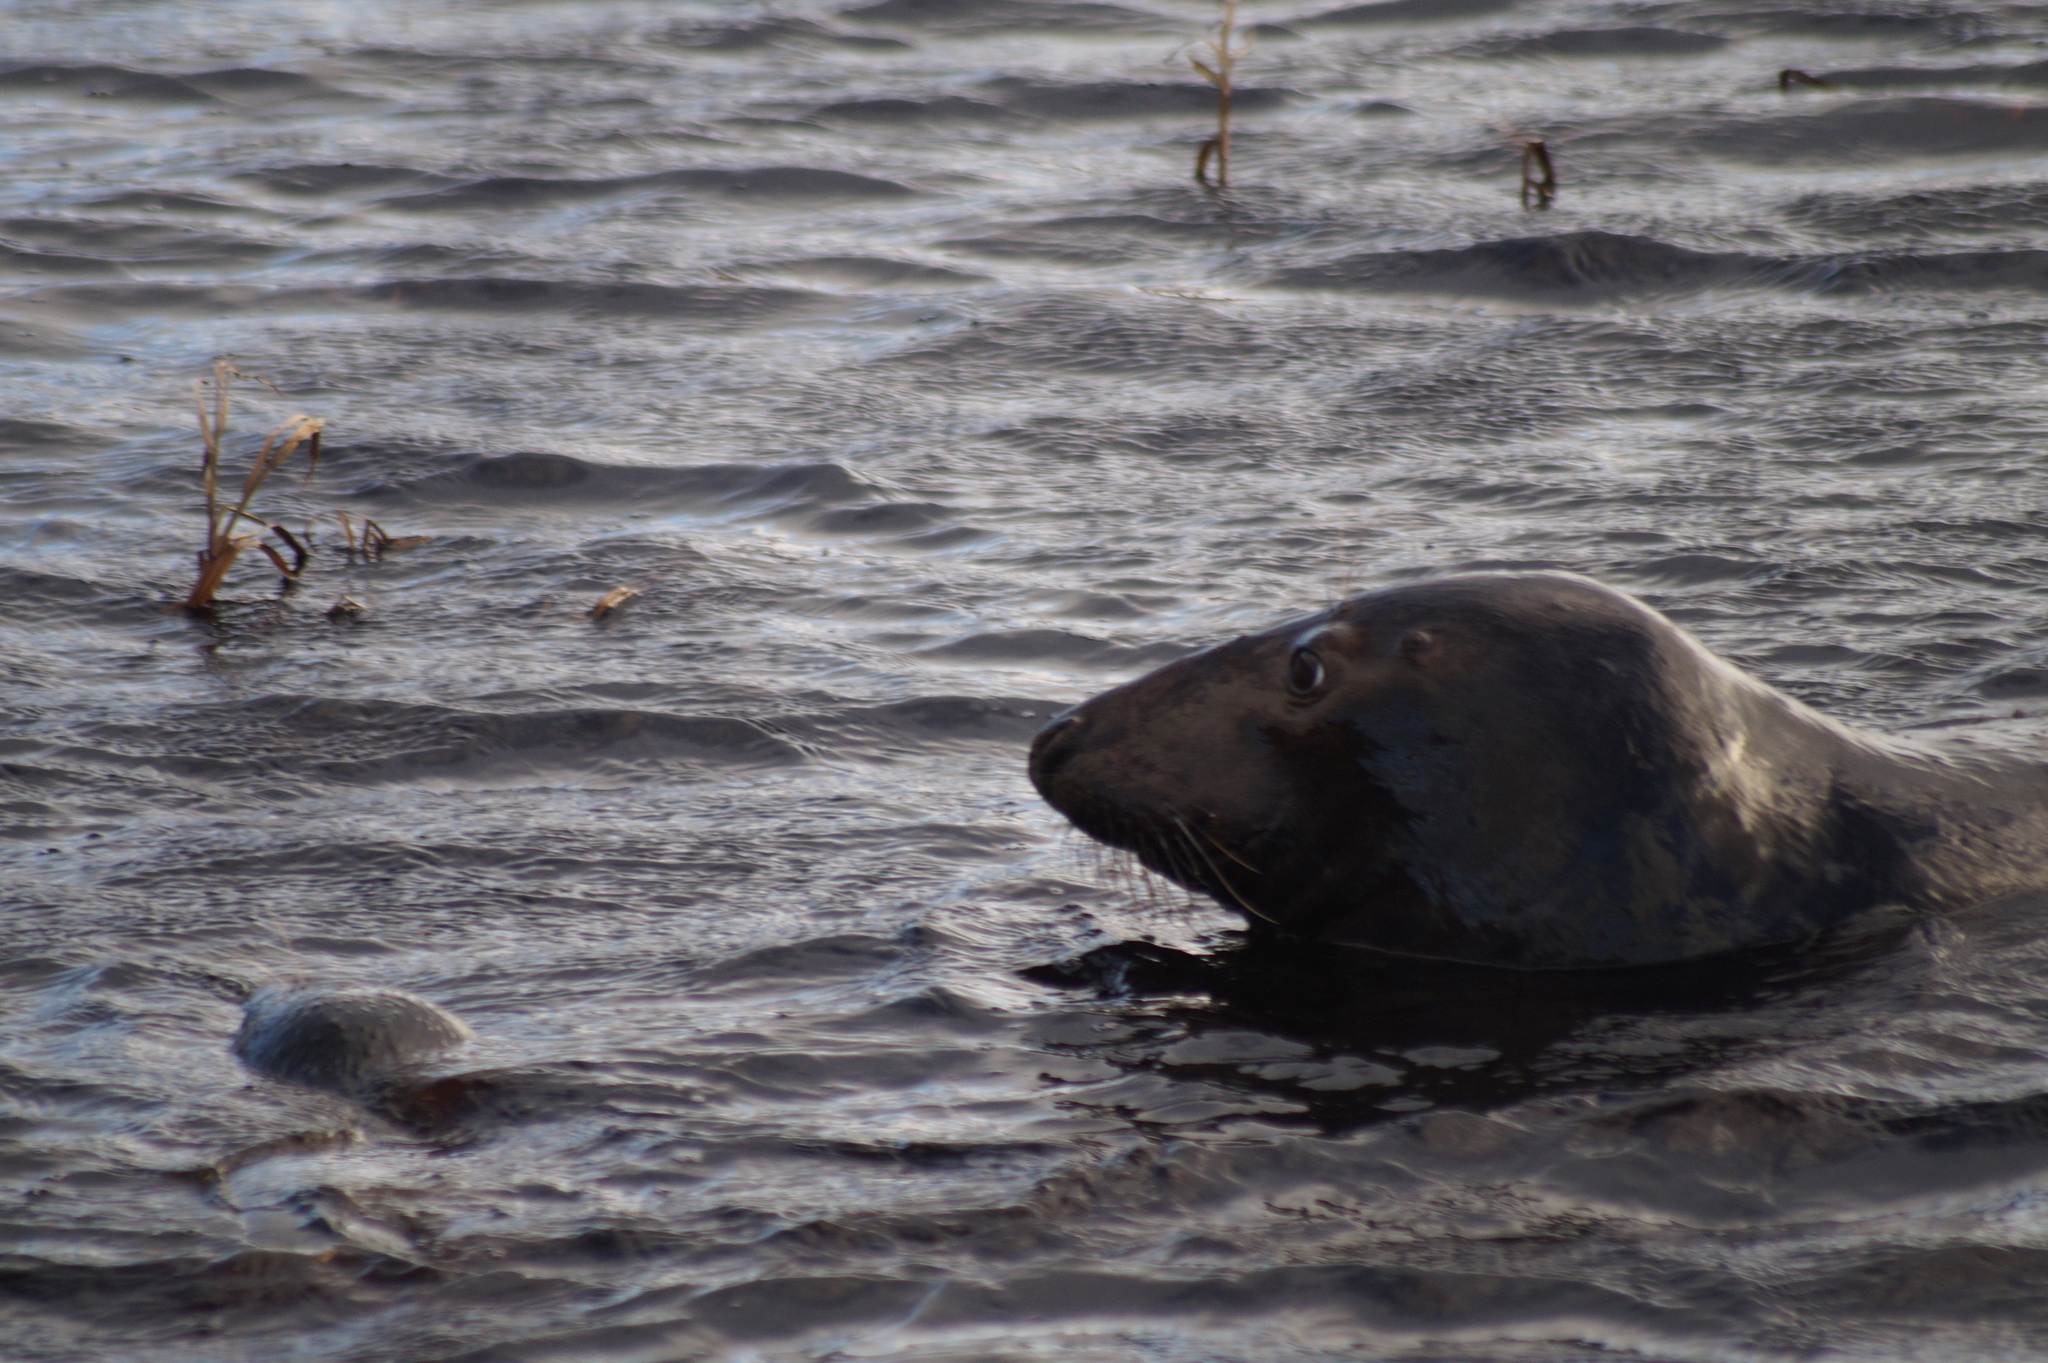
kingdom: Animalia
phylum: Chordata
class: Mammalia
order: Carnivora
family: Phocidae
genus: Halichoerus
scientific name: Halichoerus grypus
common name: Grey seal
